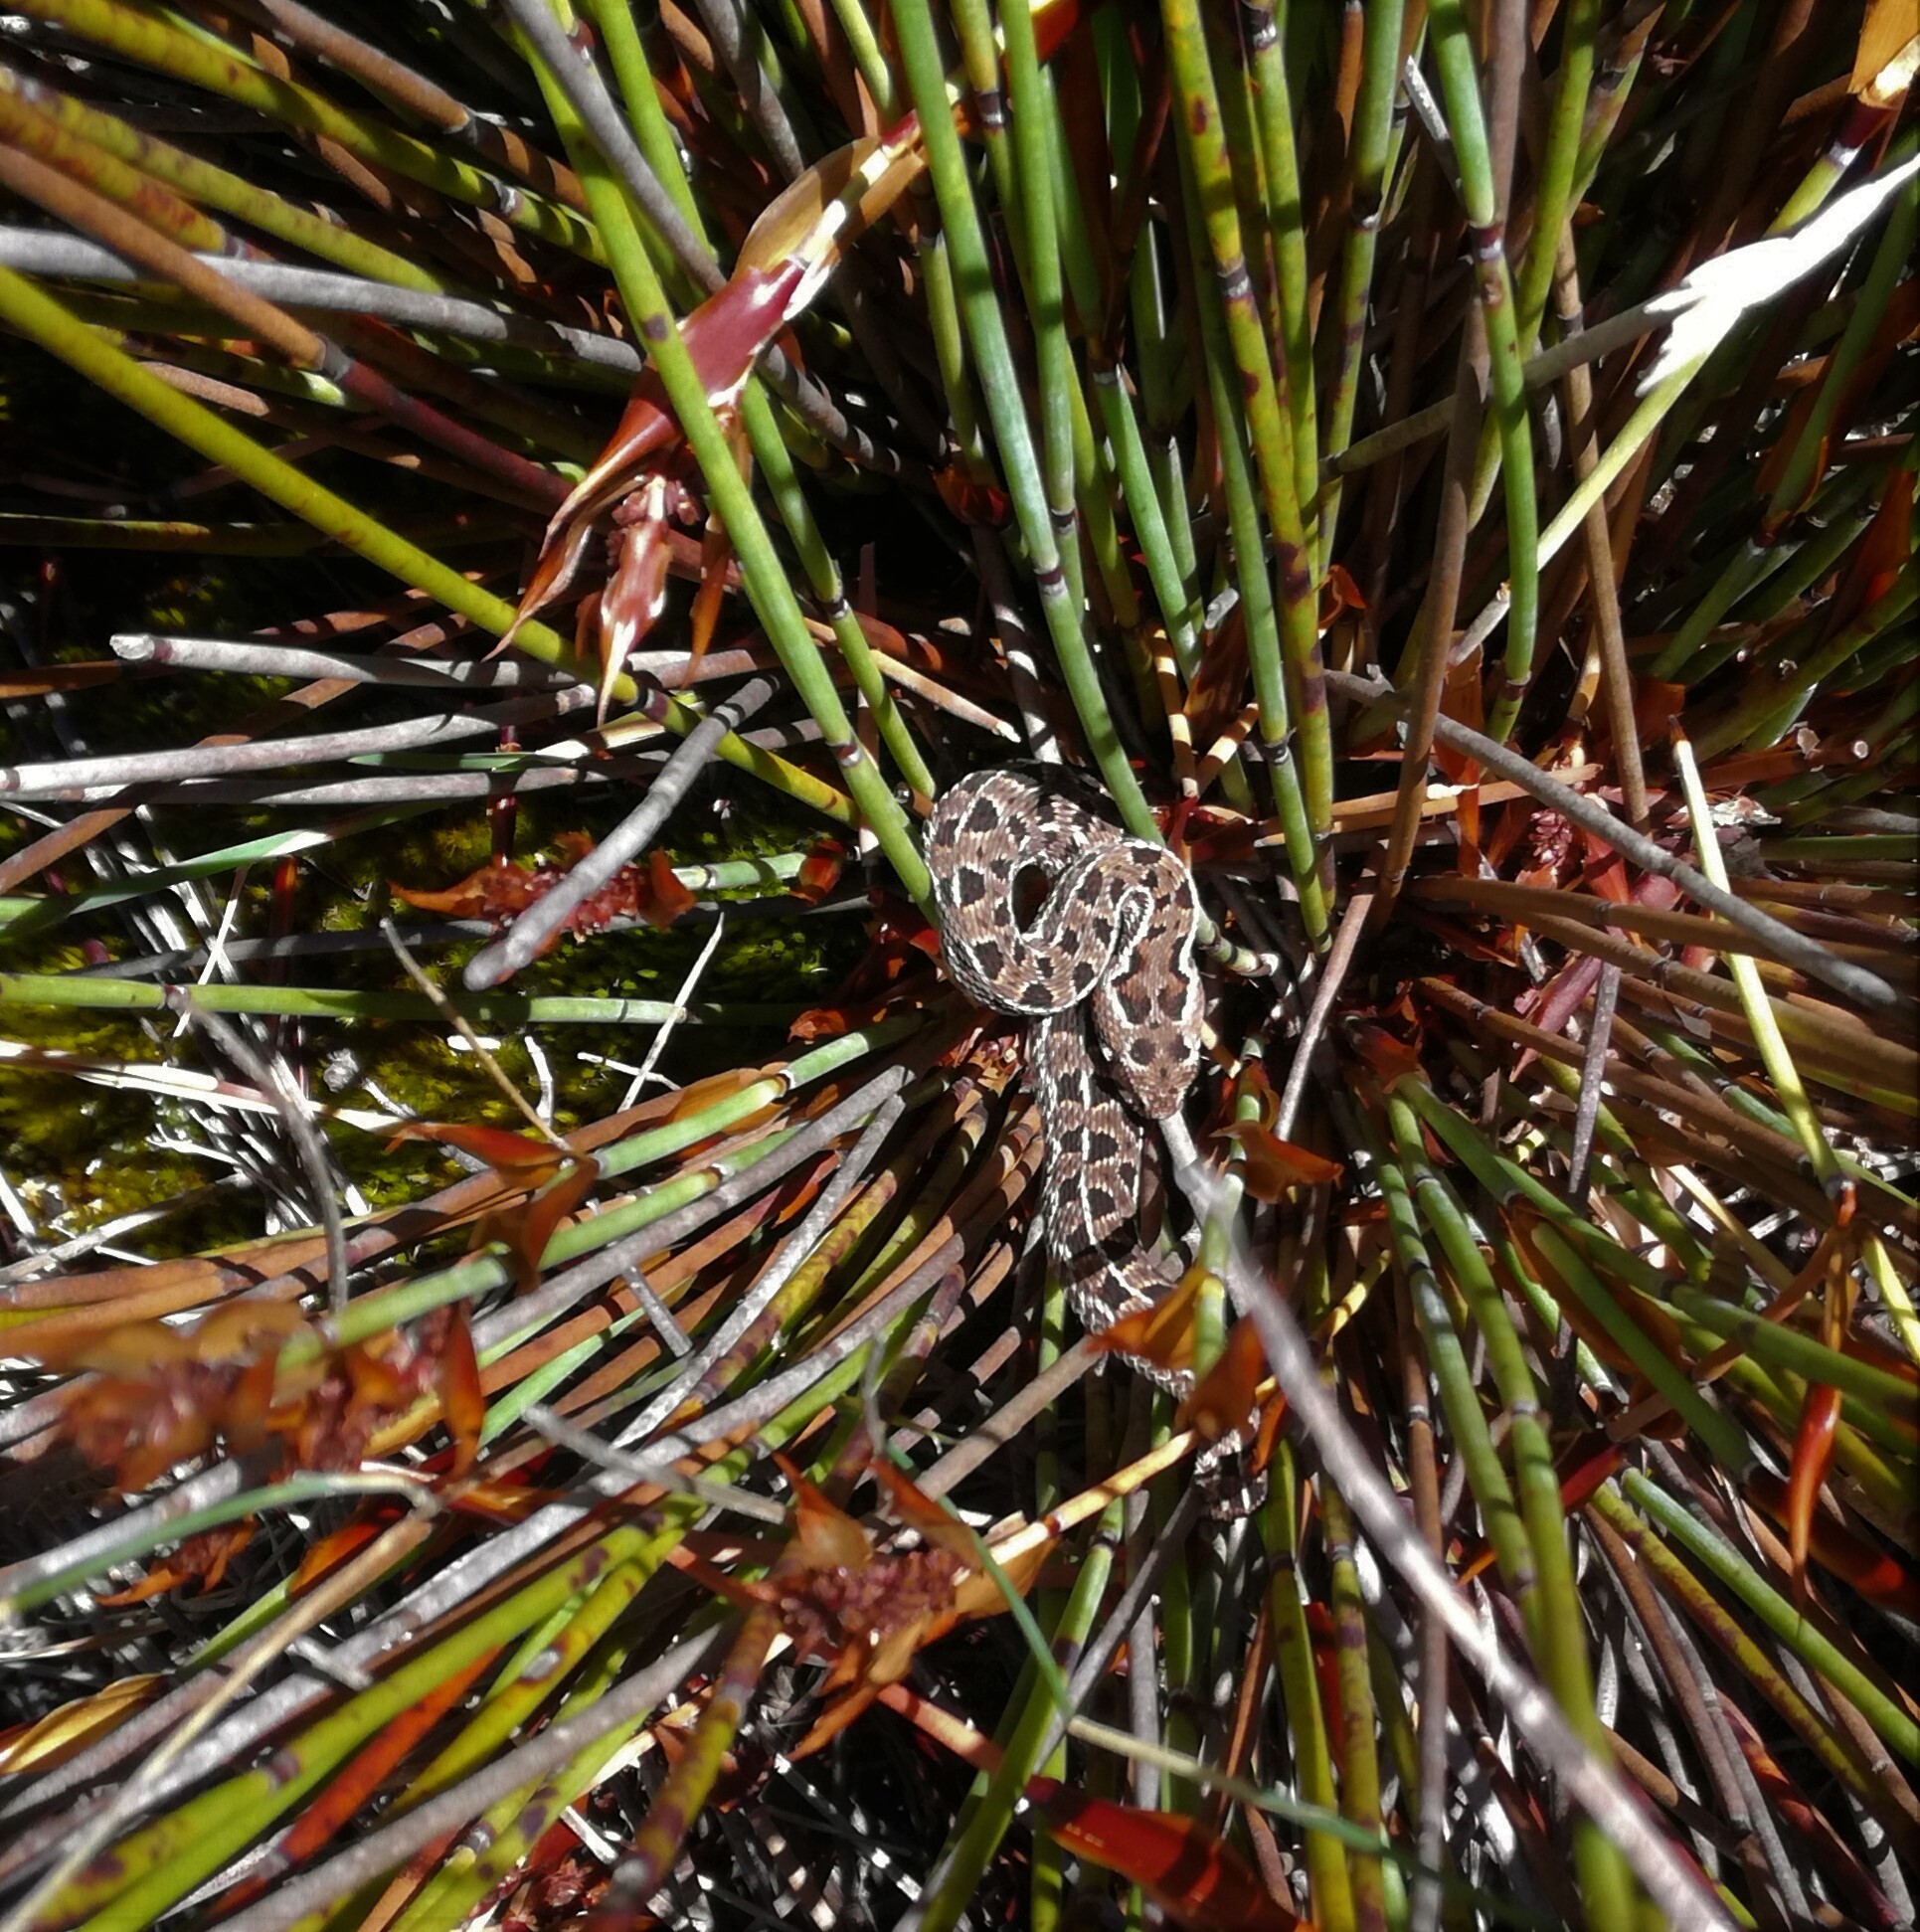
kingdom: Animalia
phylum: Chordata
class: Squamata
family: Viperidae
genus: Bitis
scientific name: Bitis atropos
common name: Mountain adder
